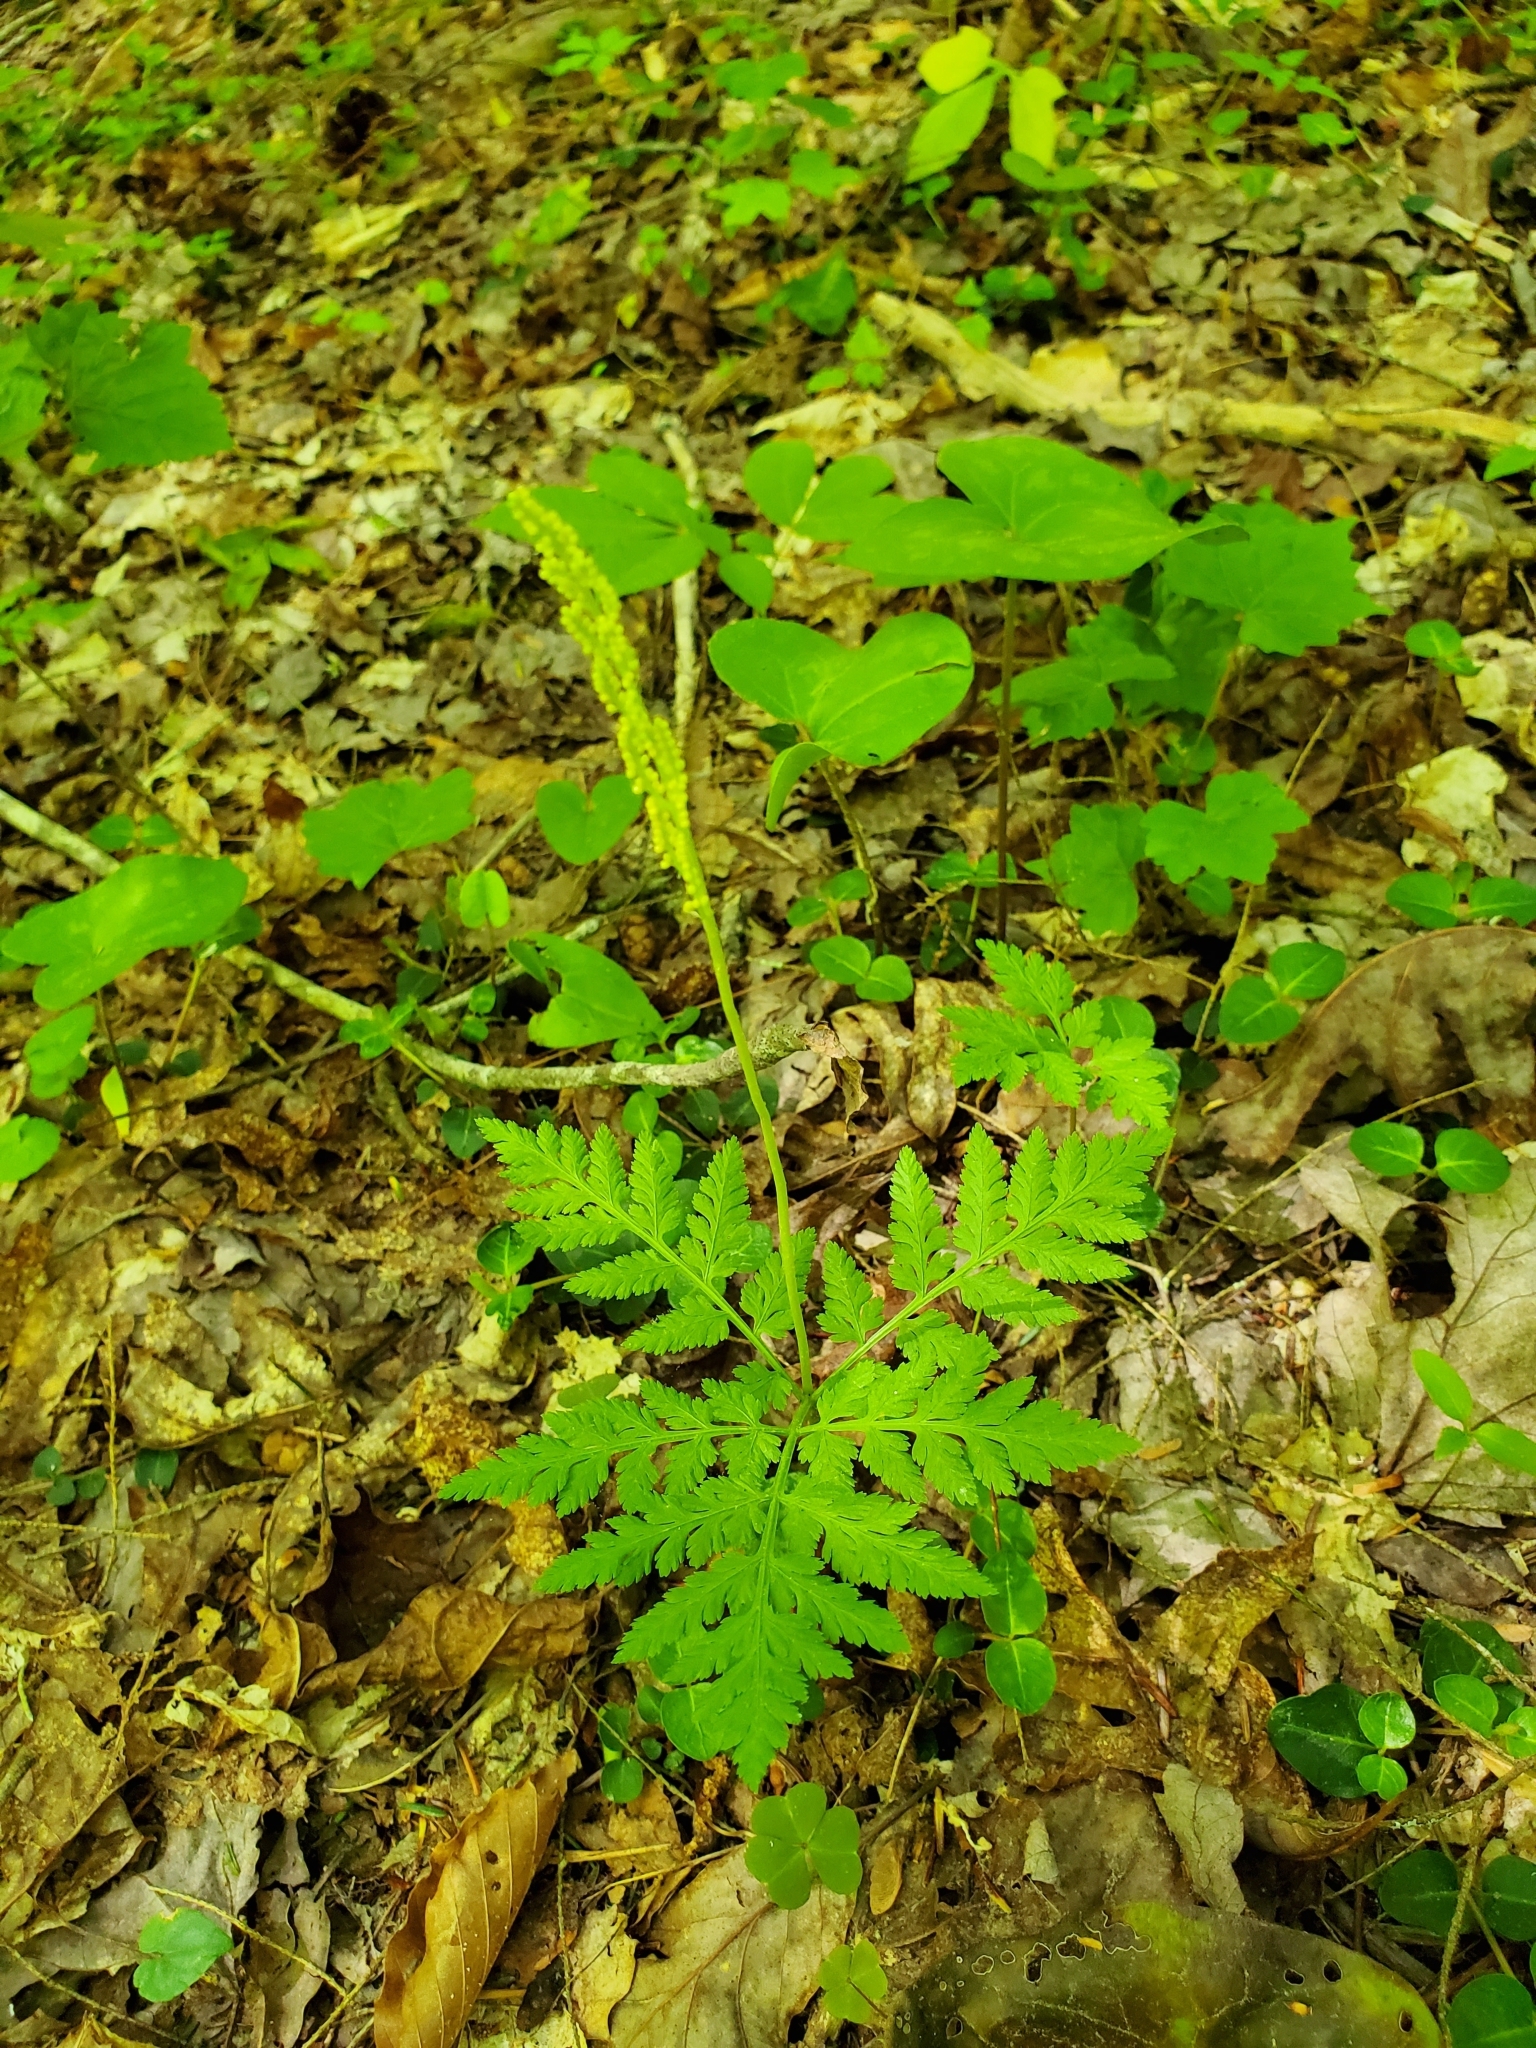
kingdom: Plantae
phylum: Tracheophyta
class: Polypodiopsida
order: Ophioglossales
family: Ophioglossaceae
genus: Botrypus
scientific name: Botrypus virginianus
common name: Common grapefern
